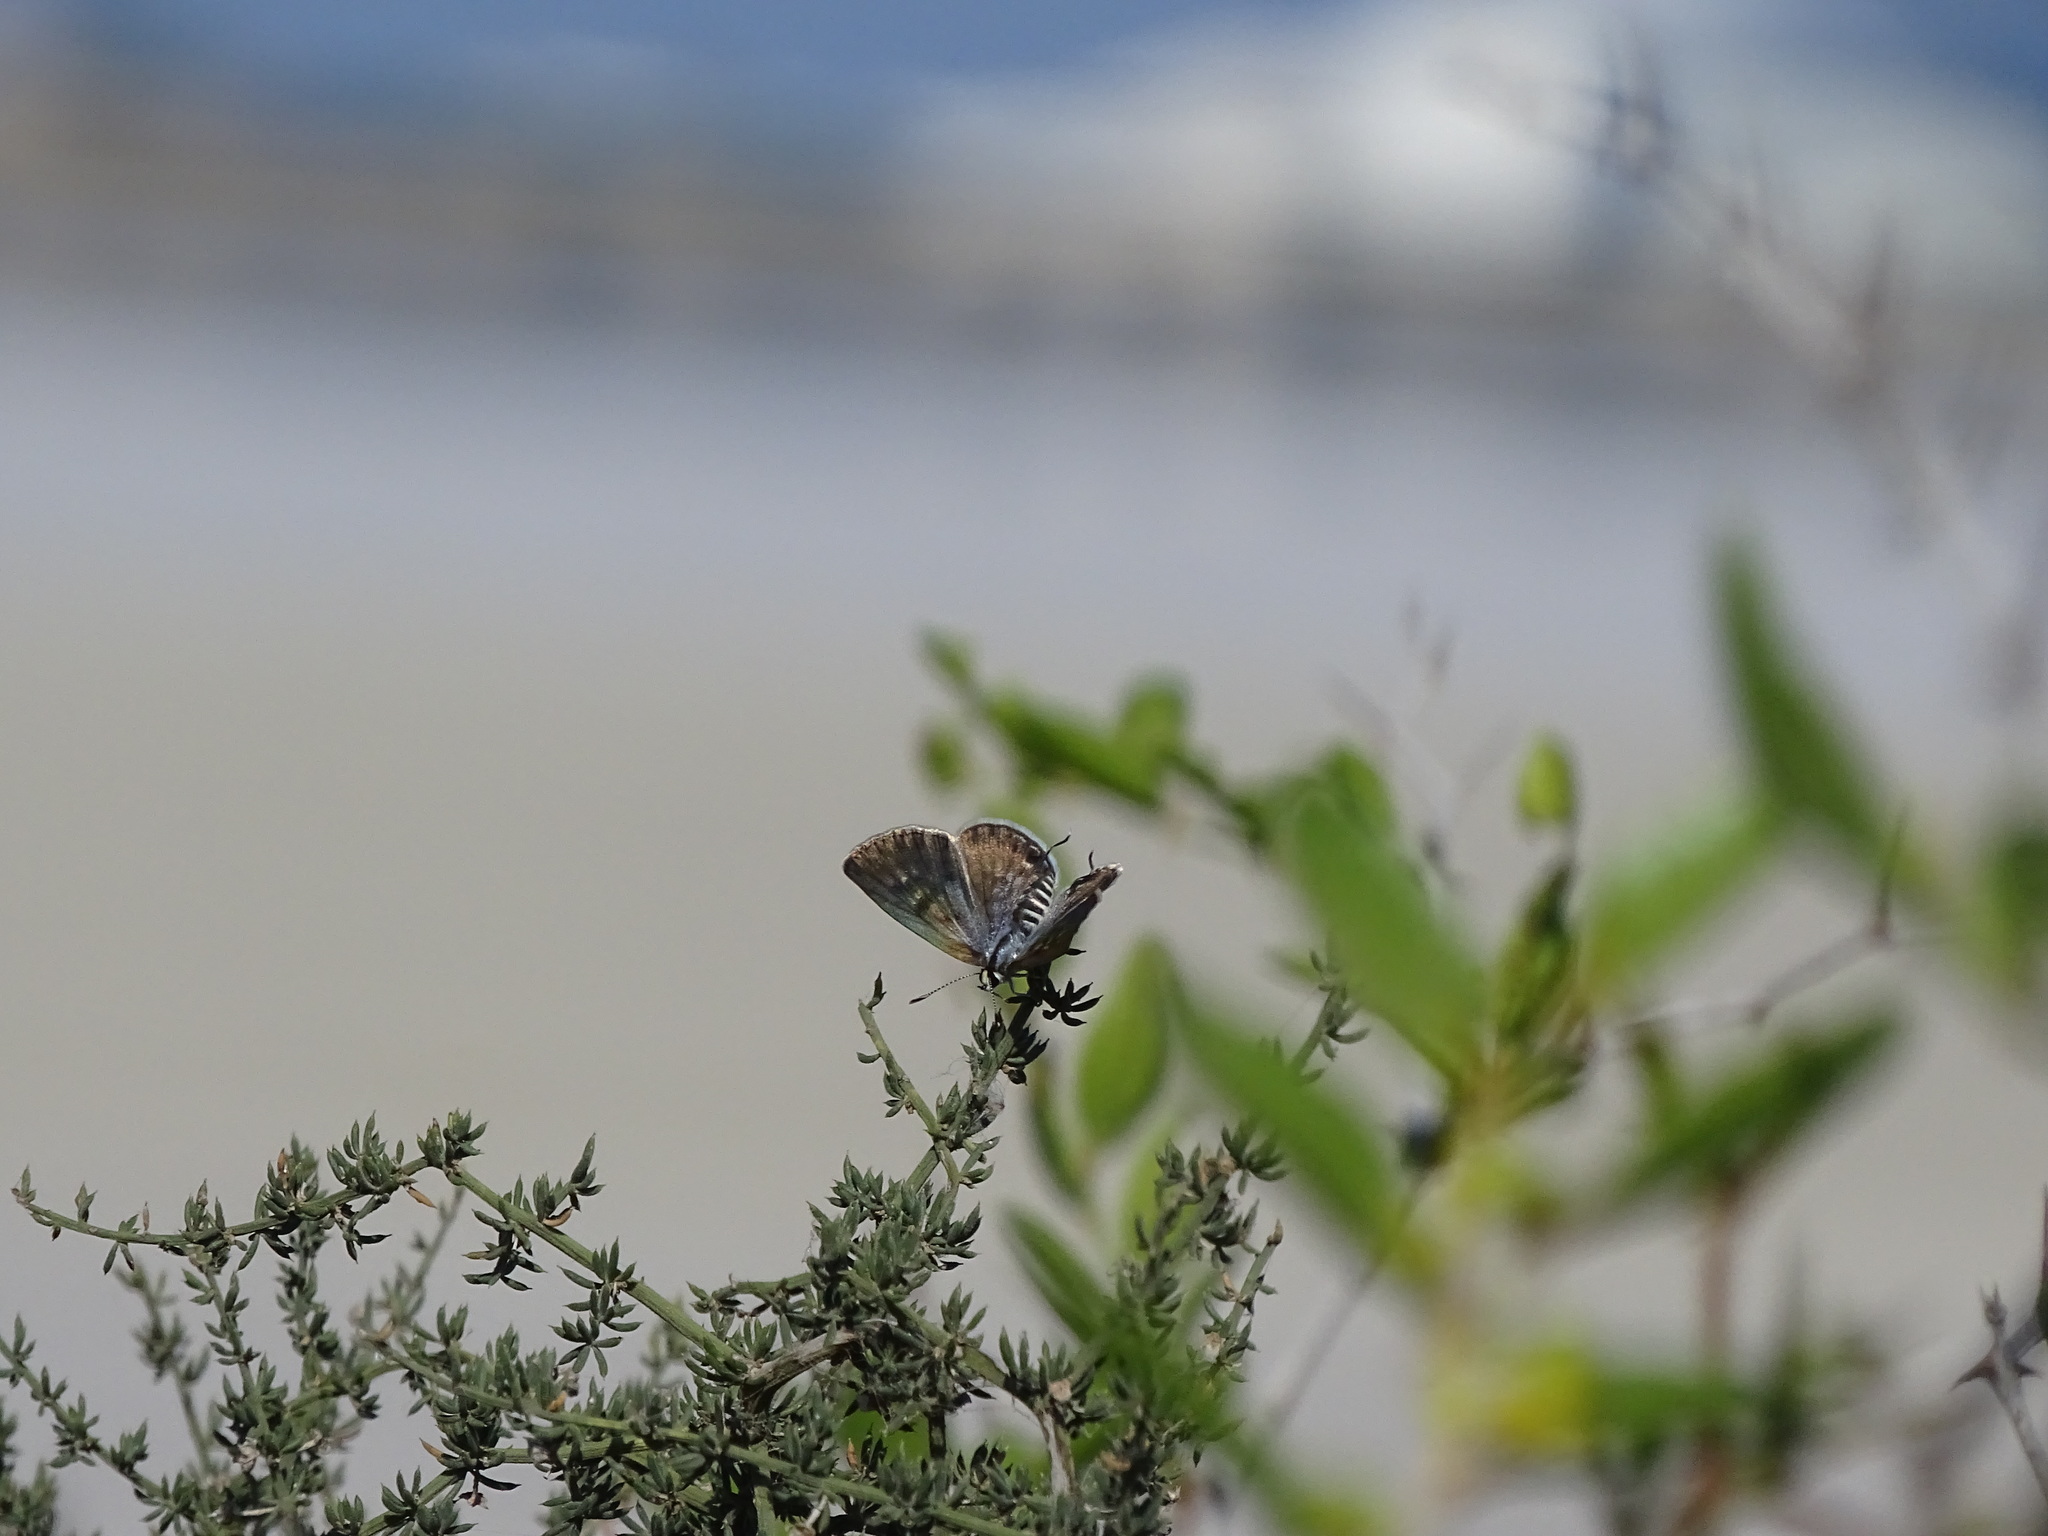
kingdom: Animalia
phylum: Arthropoda
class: Insecta
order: Lepidoptera
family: Lycaenidae
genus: Tarucus
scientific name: Tarucus balkanica
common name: Little tiger blue
